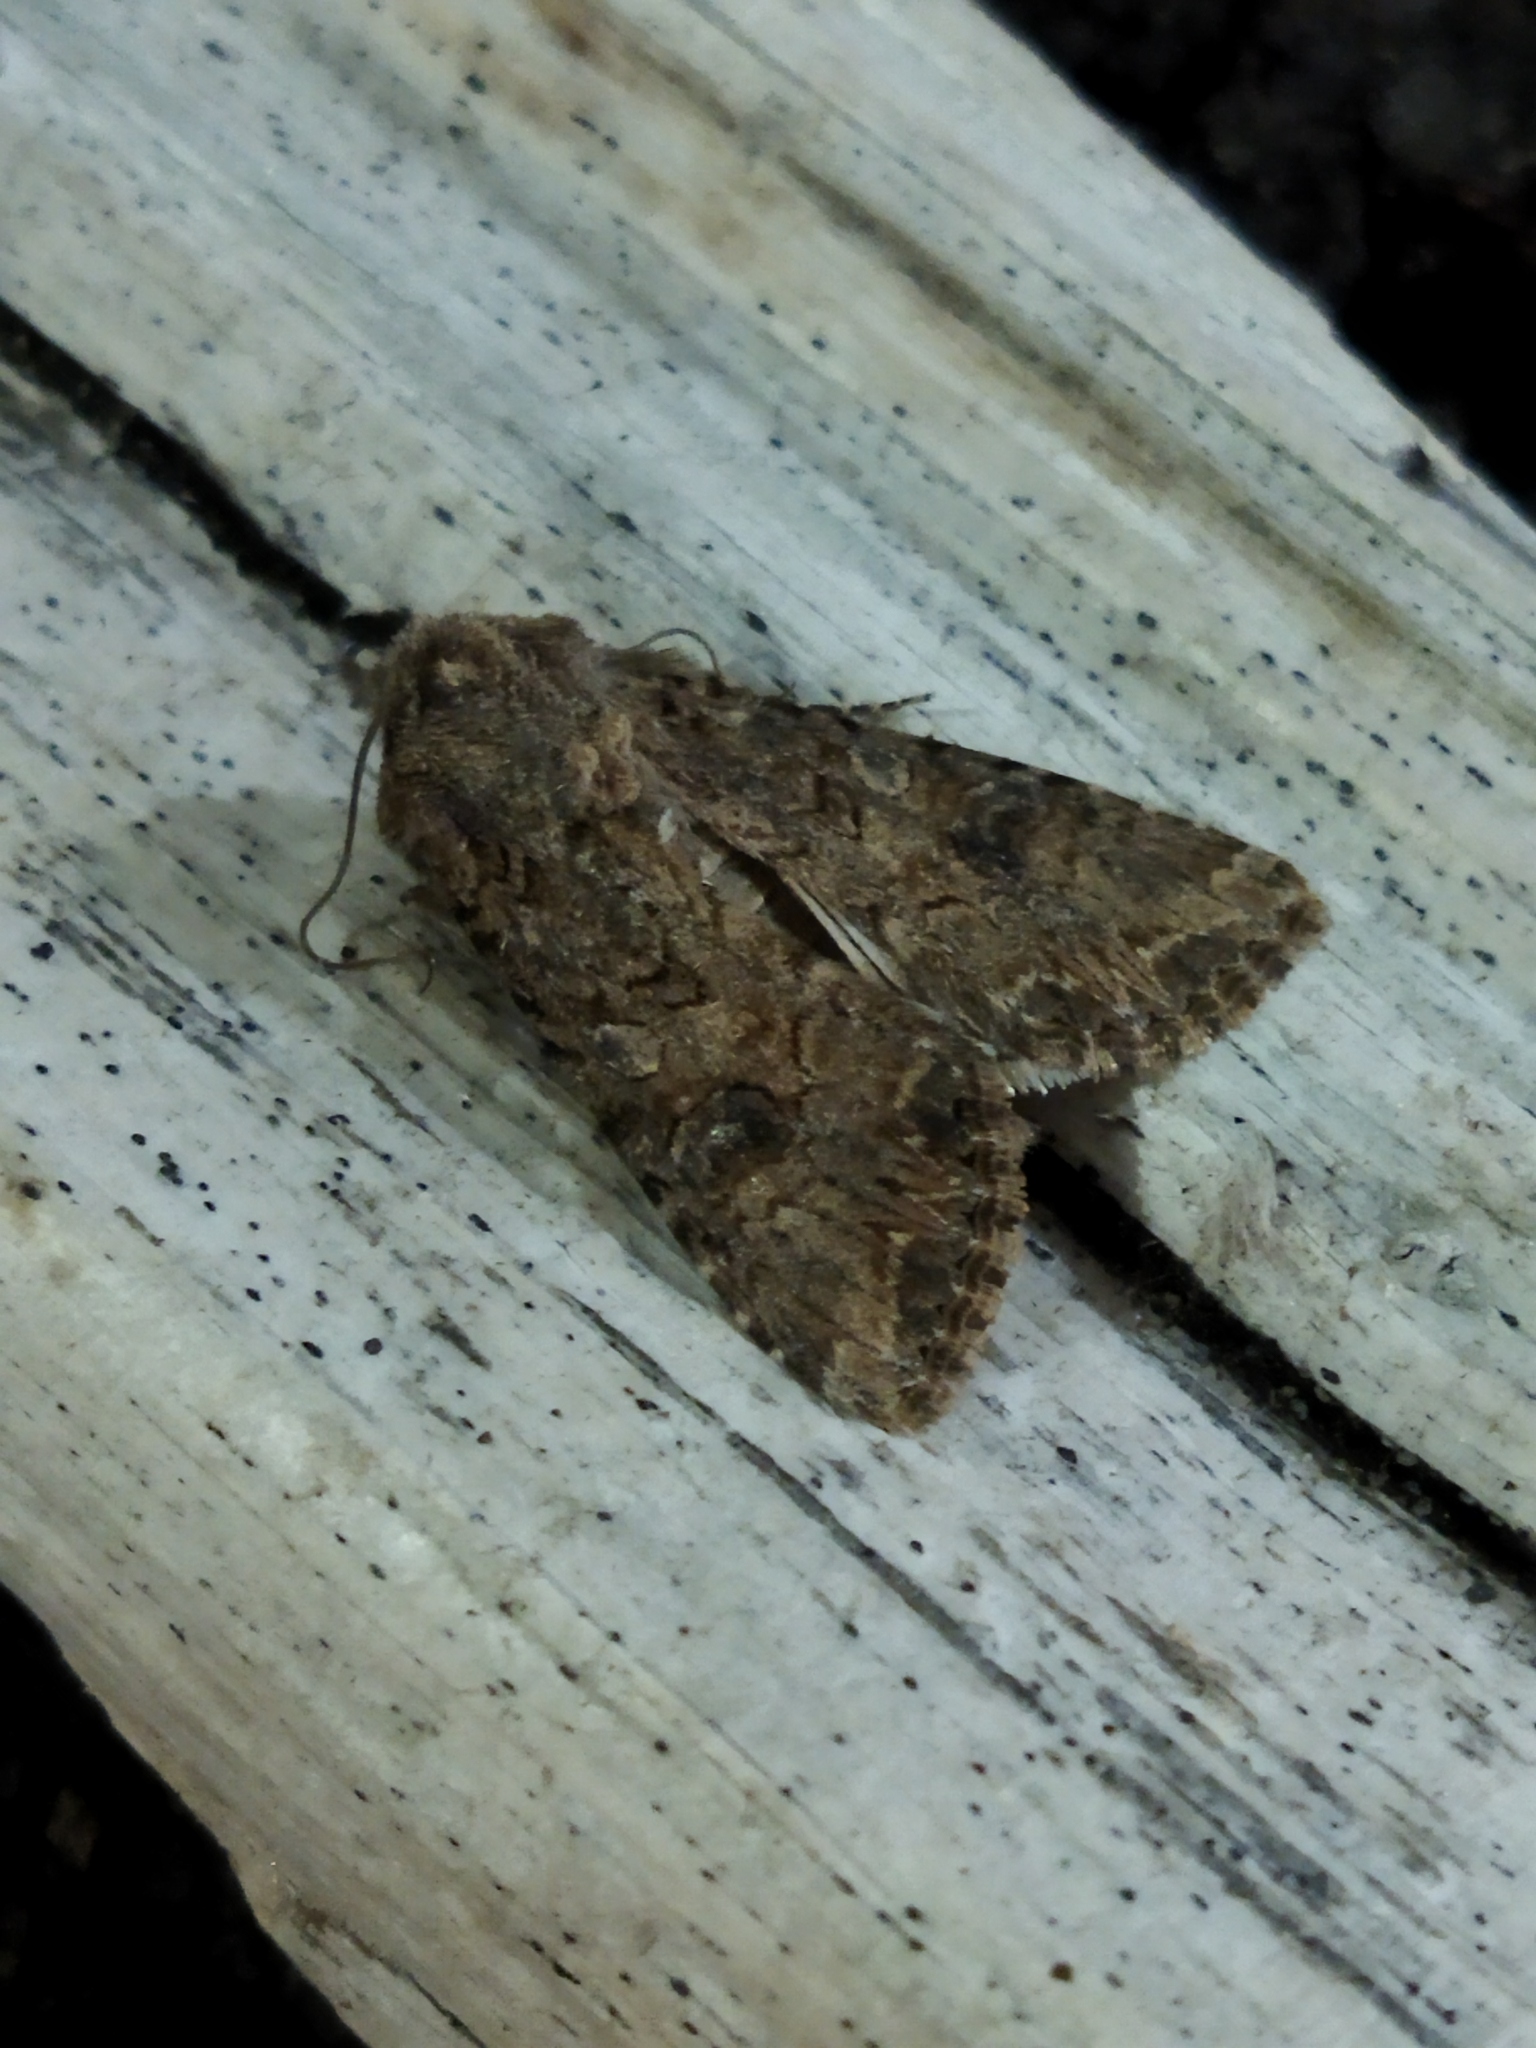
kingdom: Animalia
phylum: Arthropoda
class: Insecta
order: Lepidoptera
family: Noctuidae
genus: Anarta
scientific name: Anarta trifolii
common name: Clover cutworm moth
